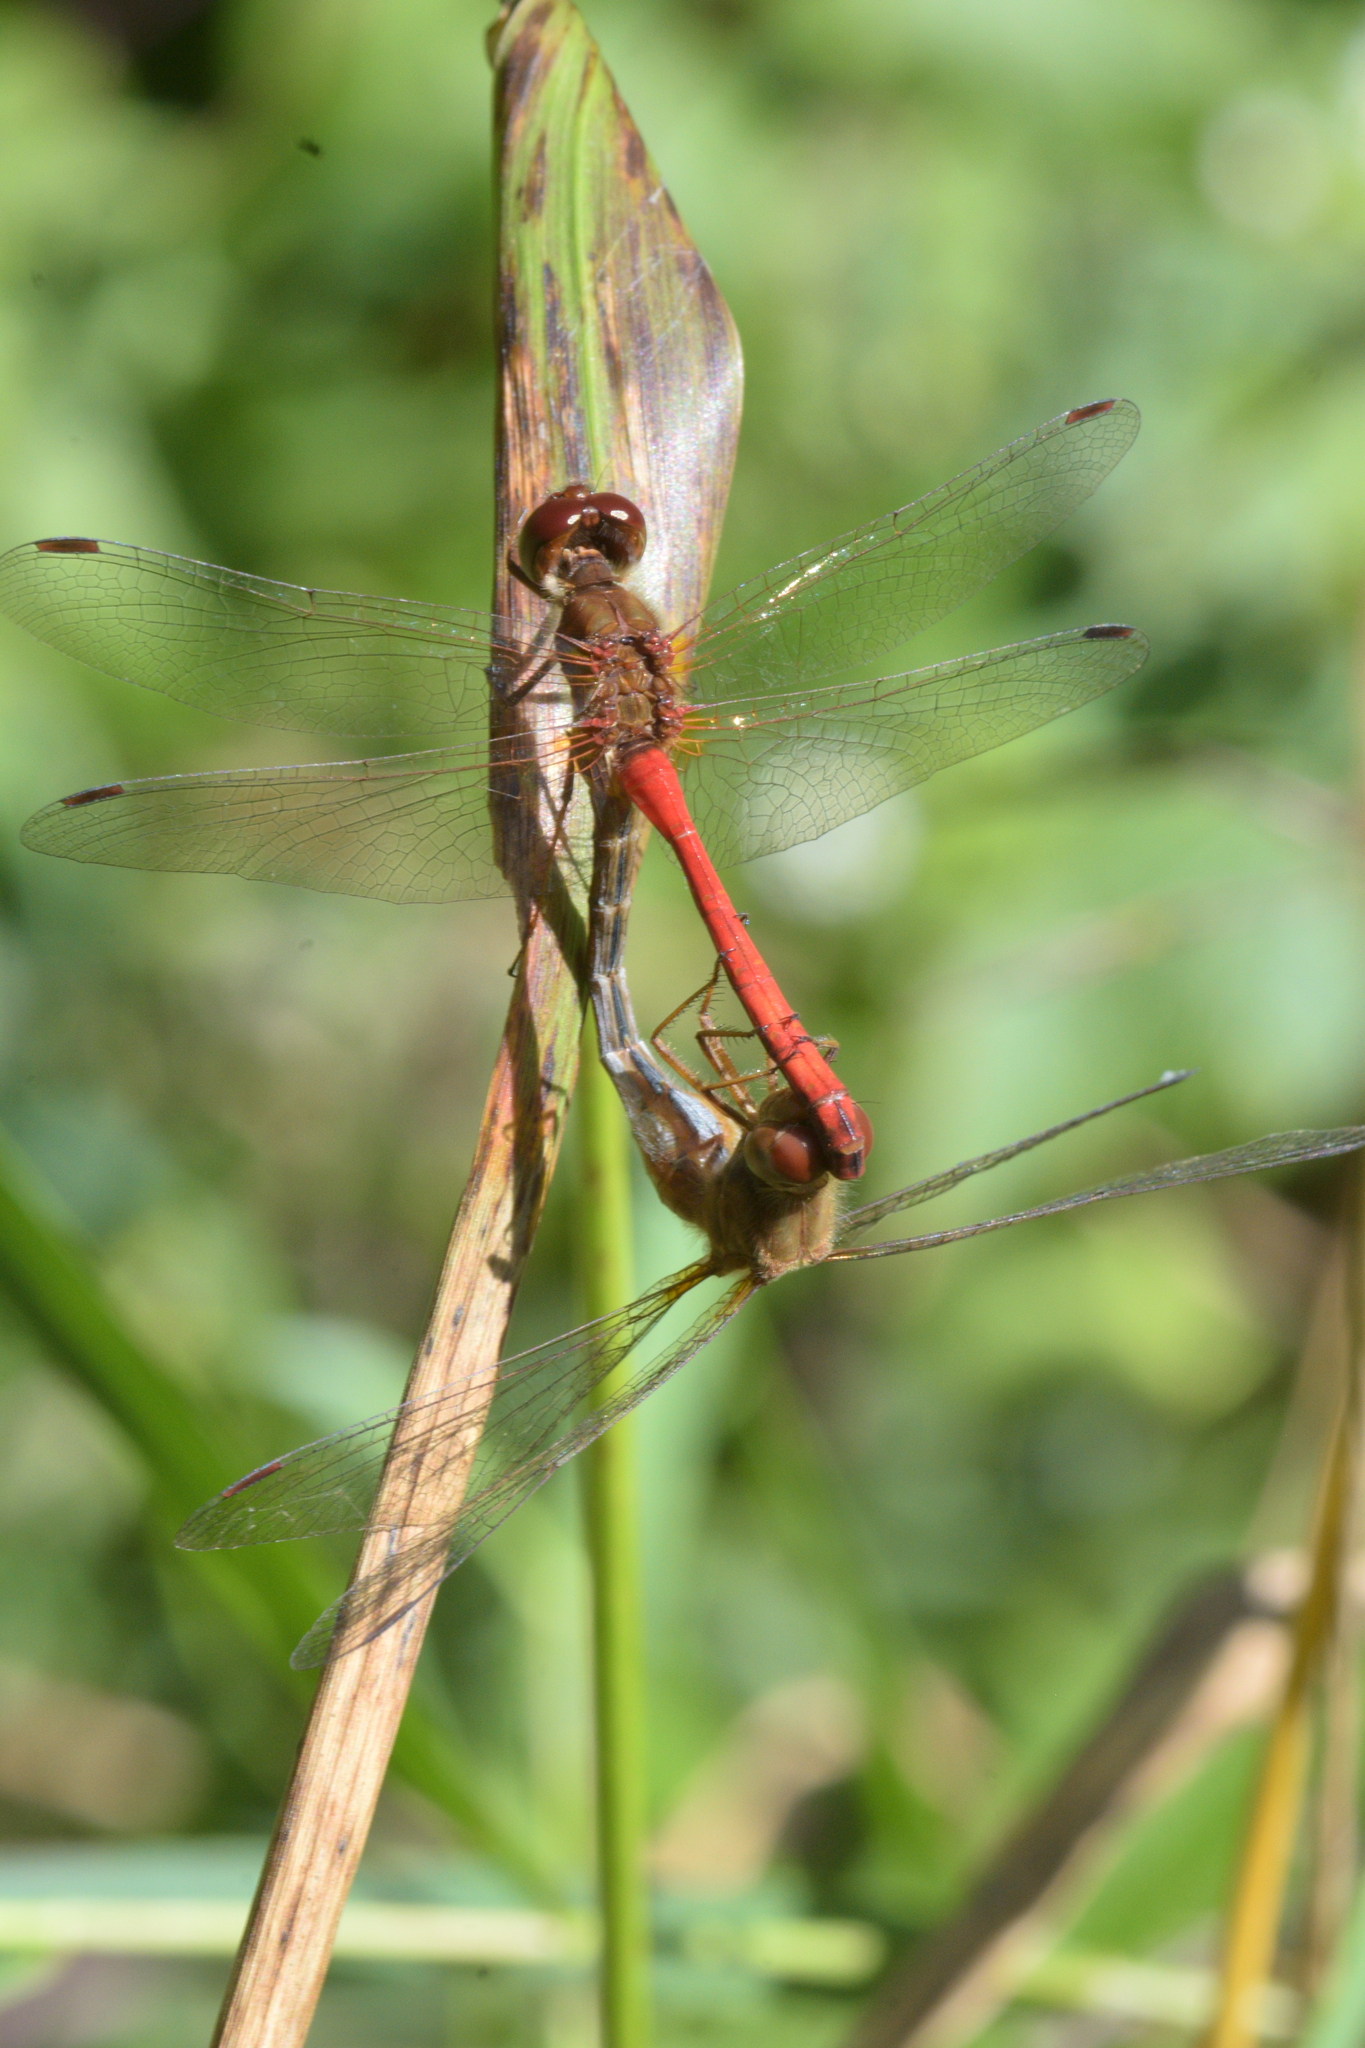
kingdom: Animalia
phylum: Arthropoda
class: Insecta
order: Odonata
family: Libellulidae
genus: Sympetrum
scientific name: Sympetrum vicinum
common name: Autumn meadowhawk
